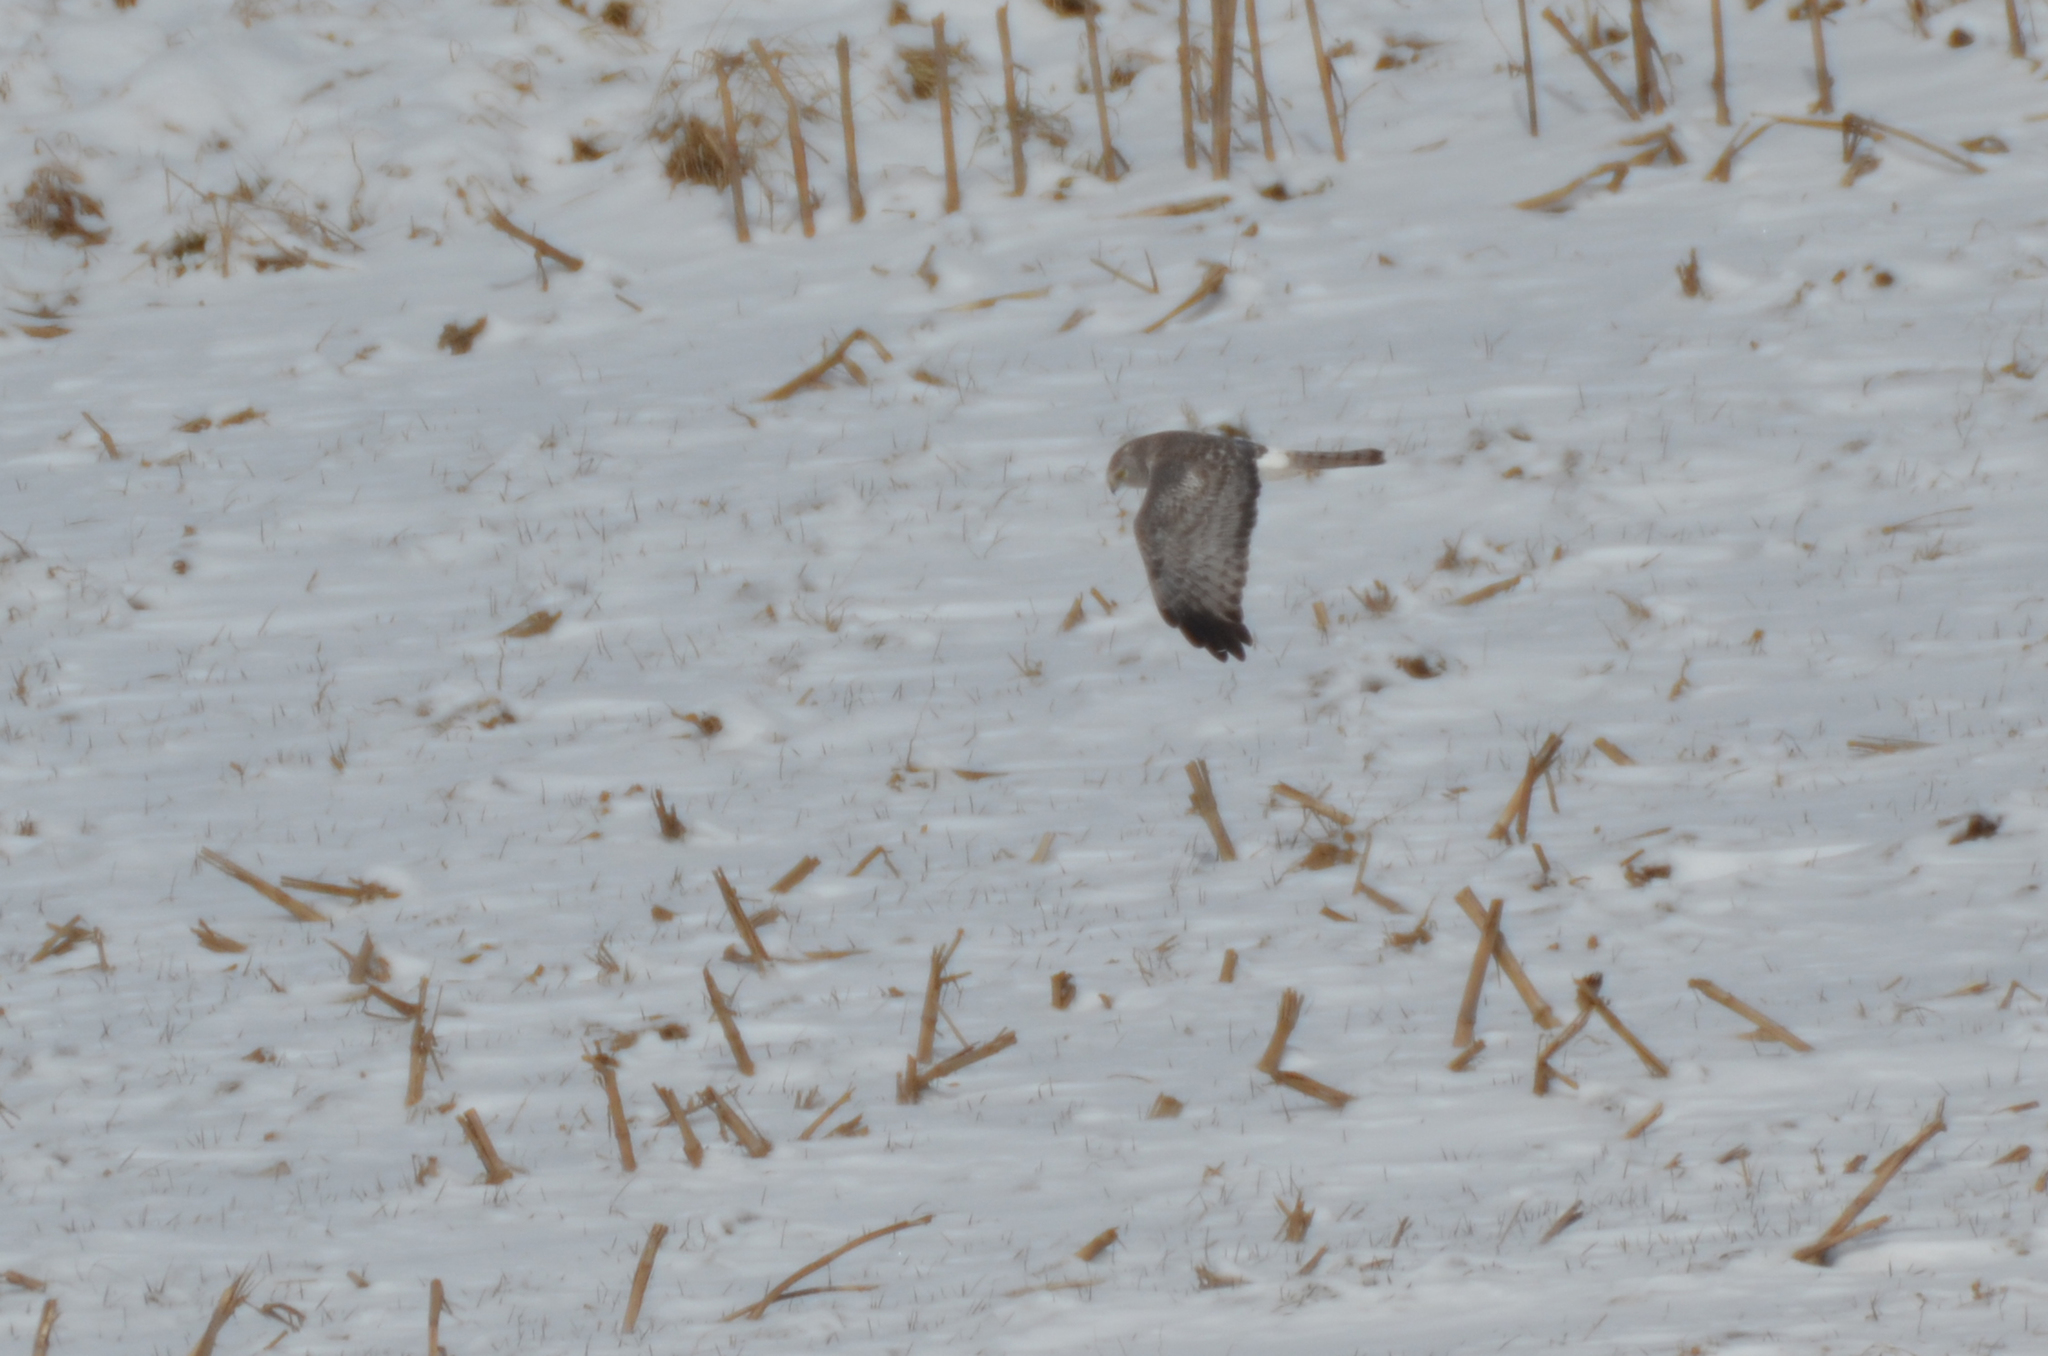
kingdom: Animalia
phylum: Chordata
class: Aves
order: Accipitriformes
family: Accipitridae
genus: Circus
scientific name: Circus cyaneus
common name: Hen harrier
